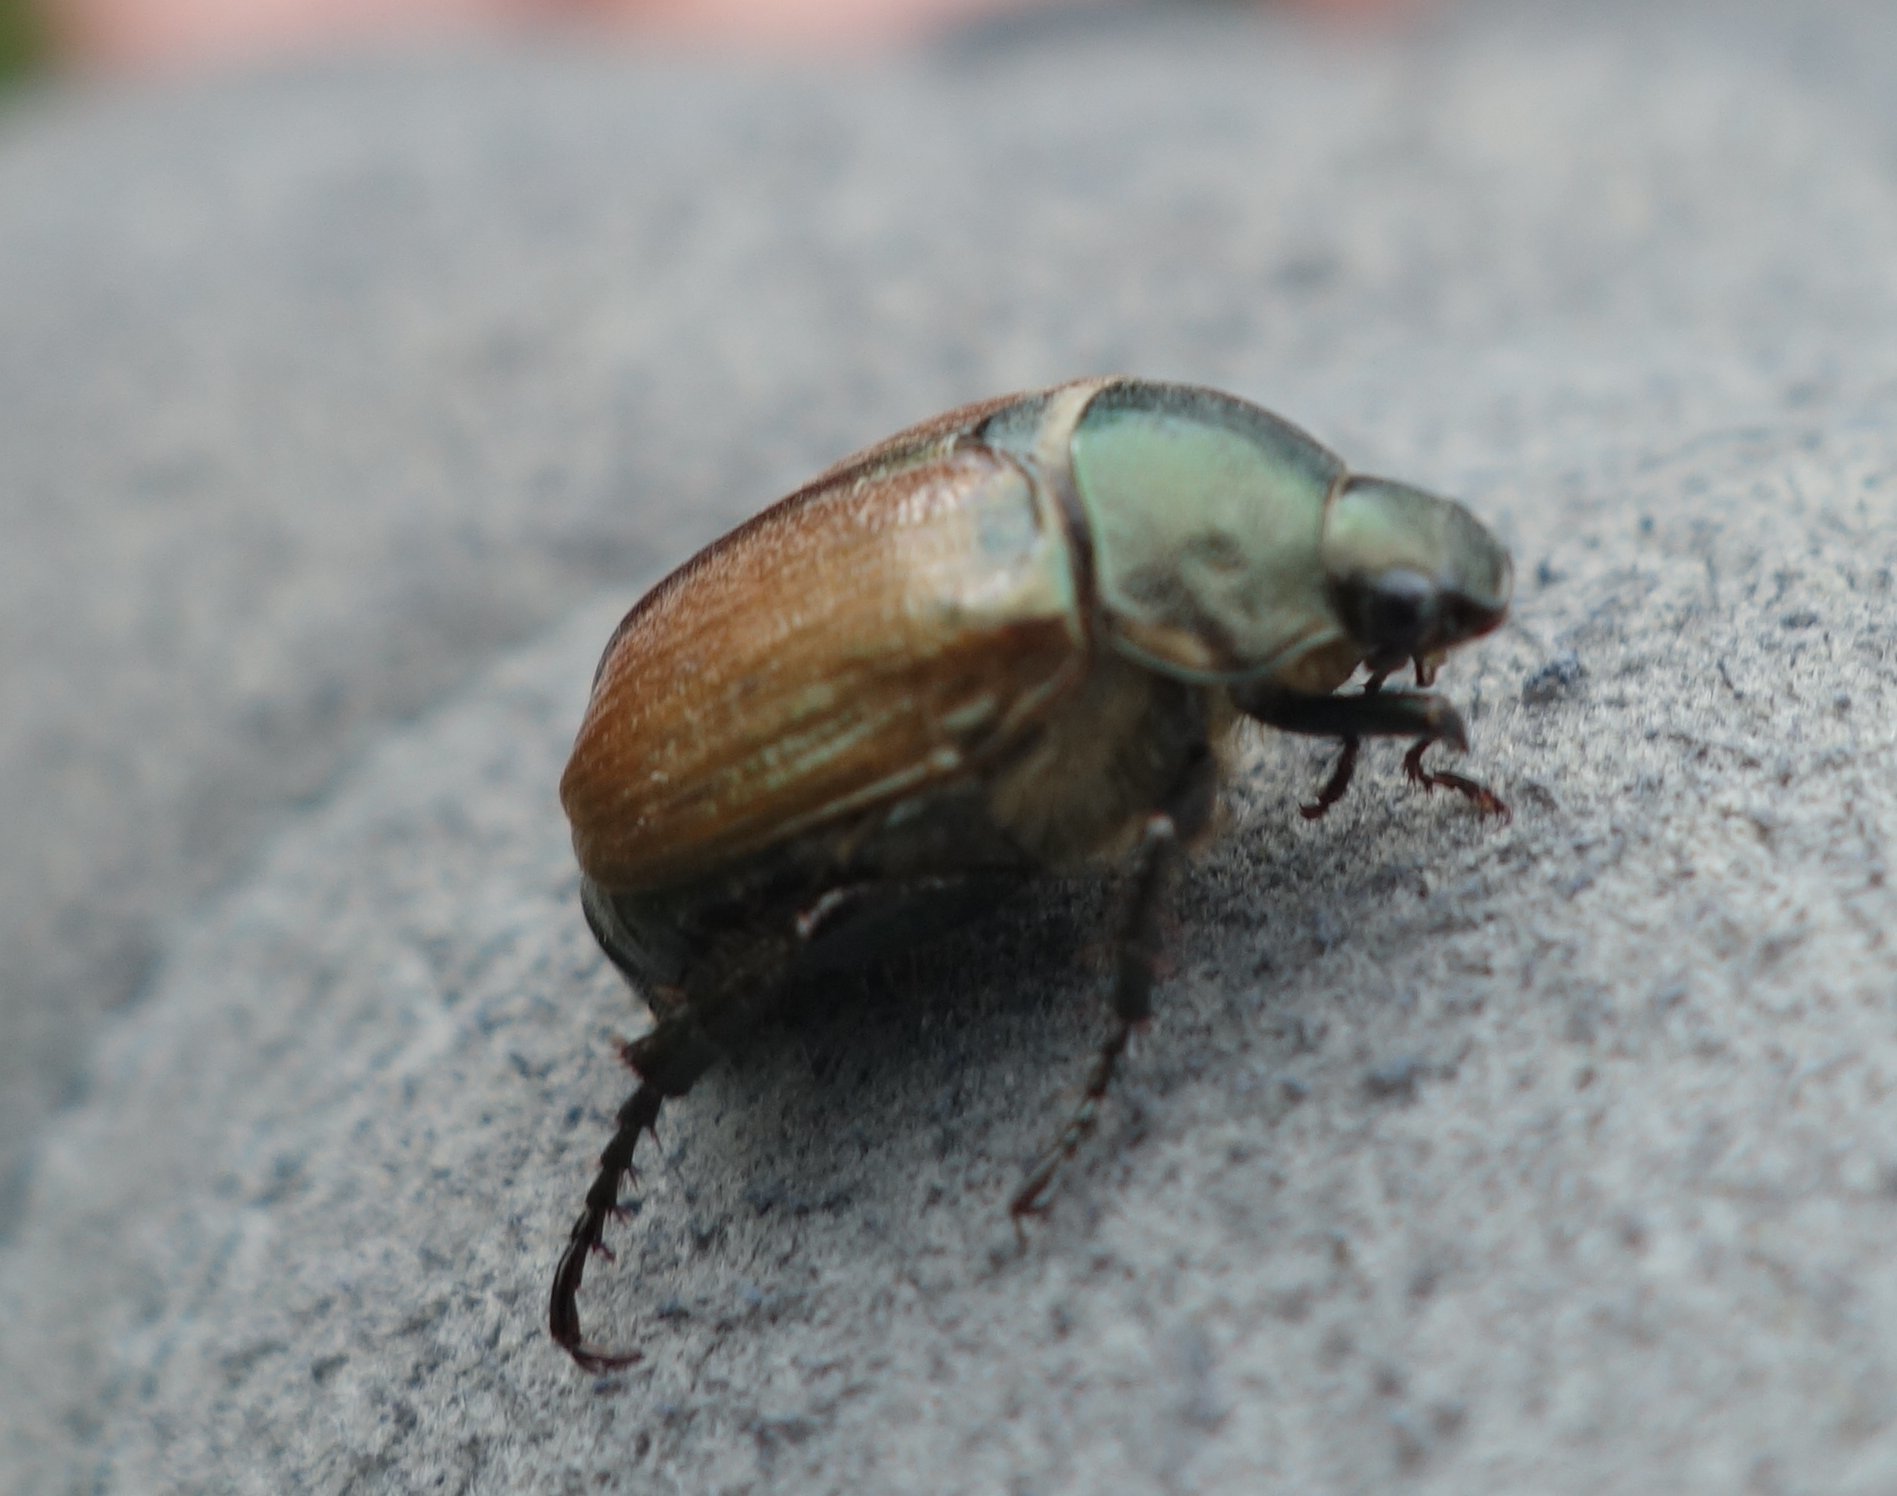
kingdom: Animalia
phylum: Arthropoda
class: Insecta
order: Coleoptera
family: Scarabaeidae
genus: Anomala
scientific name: Anomala dubia
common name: Dune chafer
